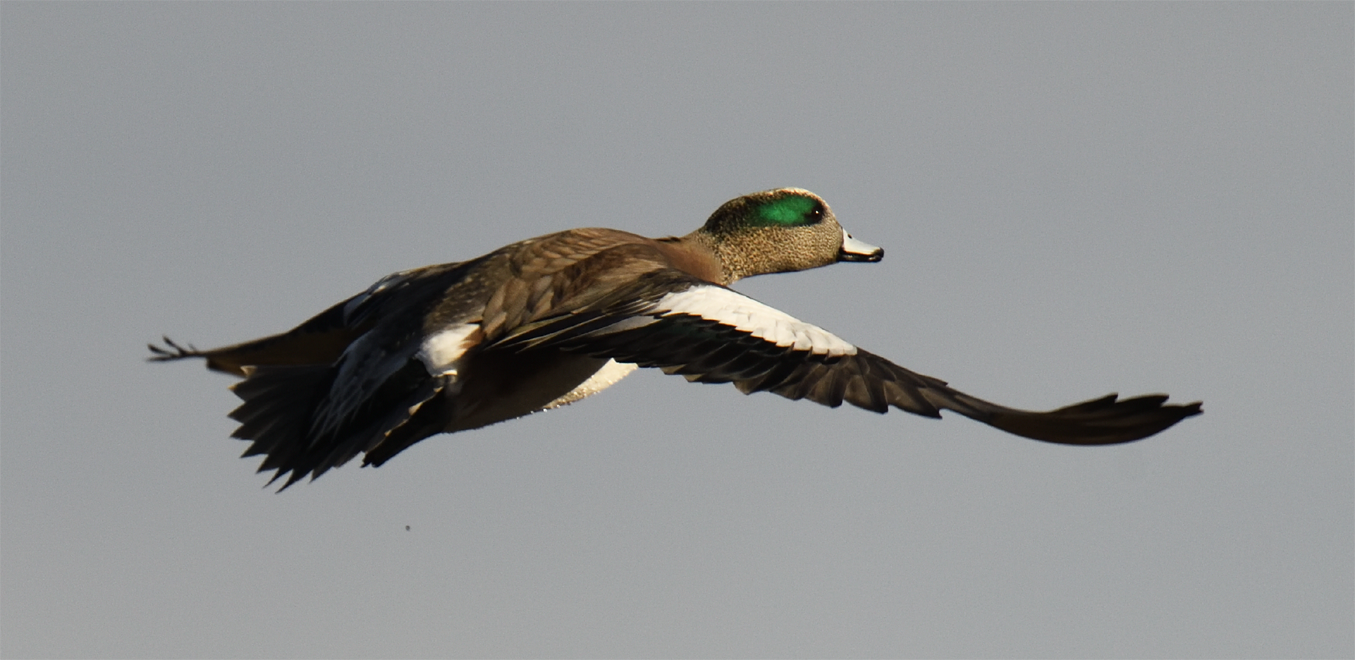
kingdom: Animalia
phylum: Chordata
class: Aves
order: Anseriformes
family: Anatidae
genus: Mareca
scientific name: Mareca americana
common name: American wigeon
